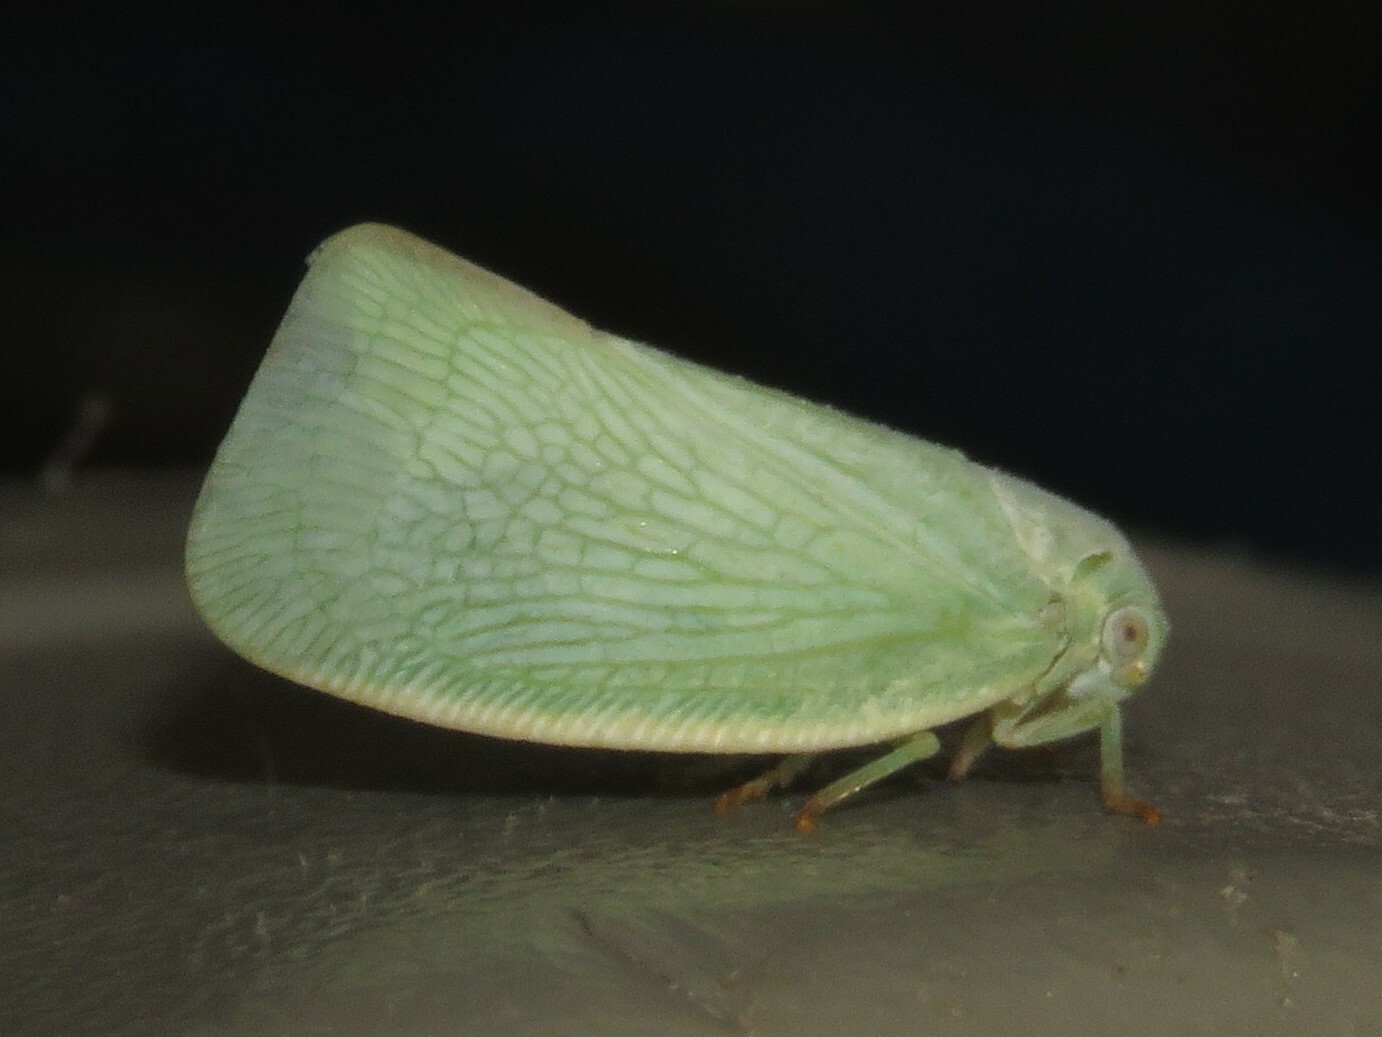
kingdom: Animalia
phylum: Arthropoda
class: Insecta
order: Hemiptera
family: Flatidae
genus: Flatormenis
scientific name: Flatormenis proxima
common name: Northern flatid planthopper
